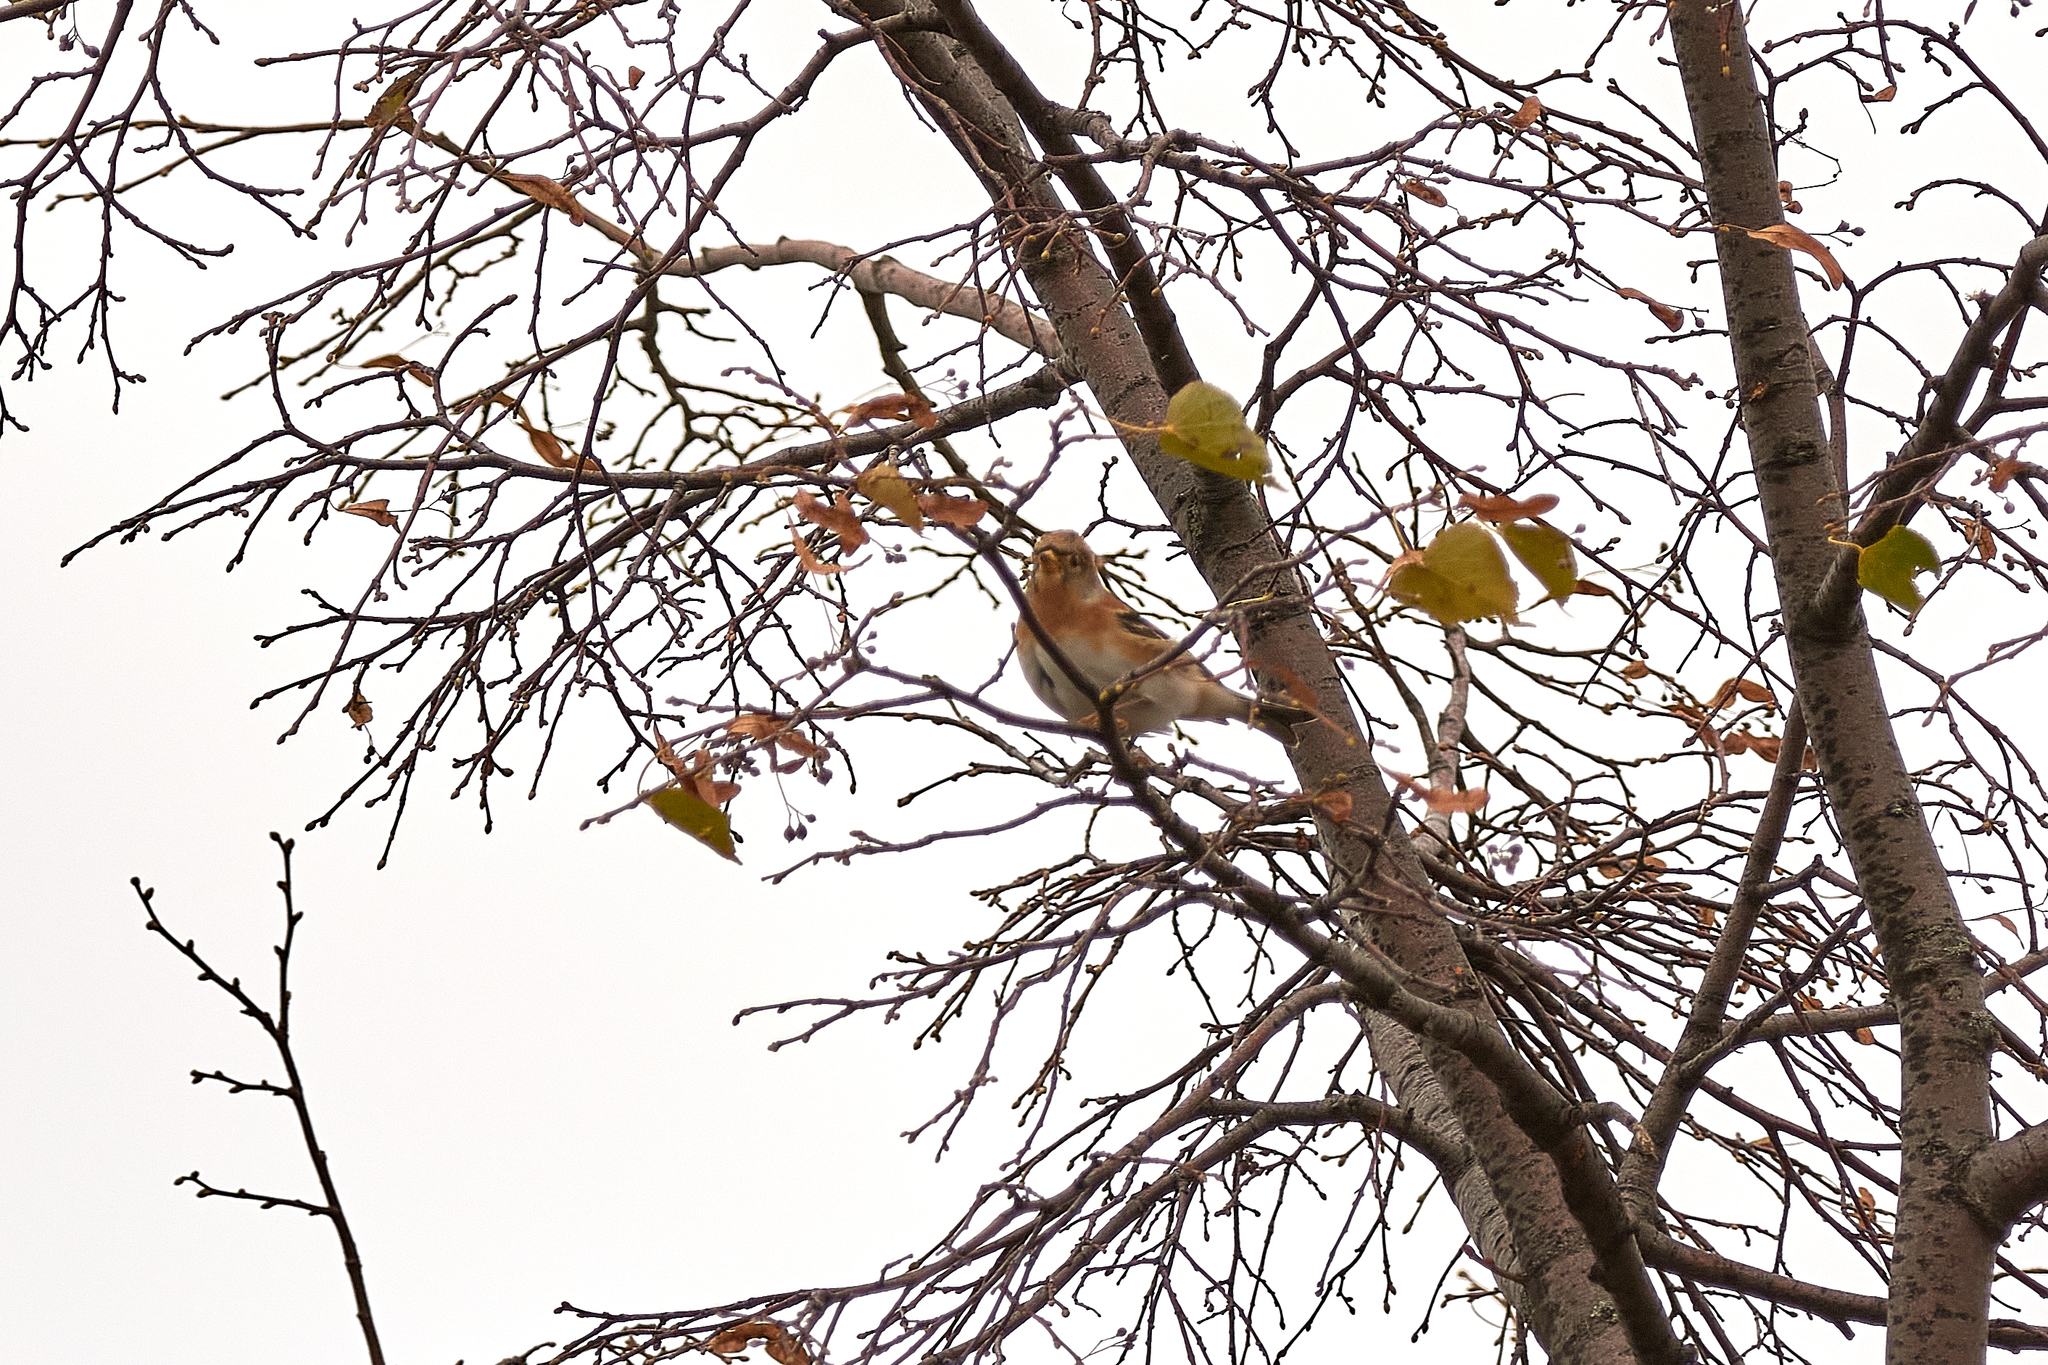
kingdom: Animalia
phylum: Chordata
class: Aves
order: Passeriformes
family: Fringillidae
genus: Fringilla
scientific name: Fringilla montifringilla
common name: Brambling
